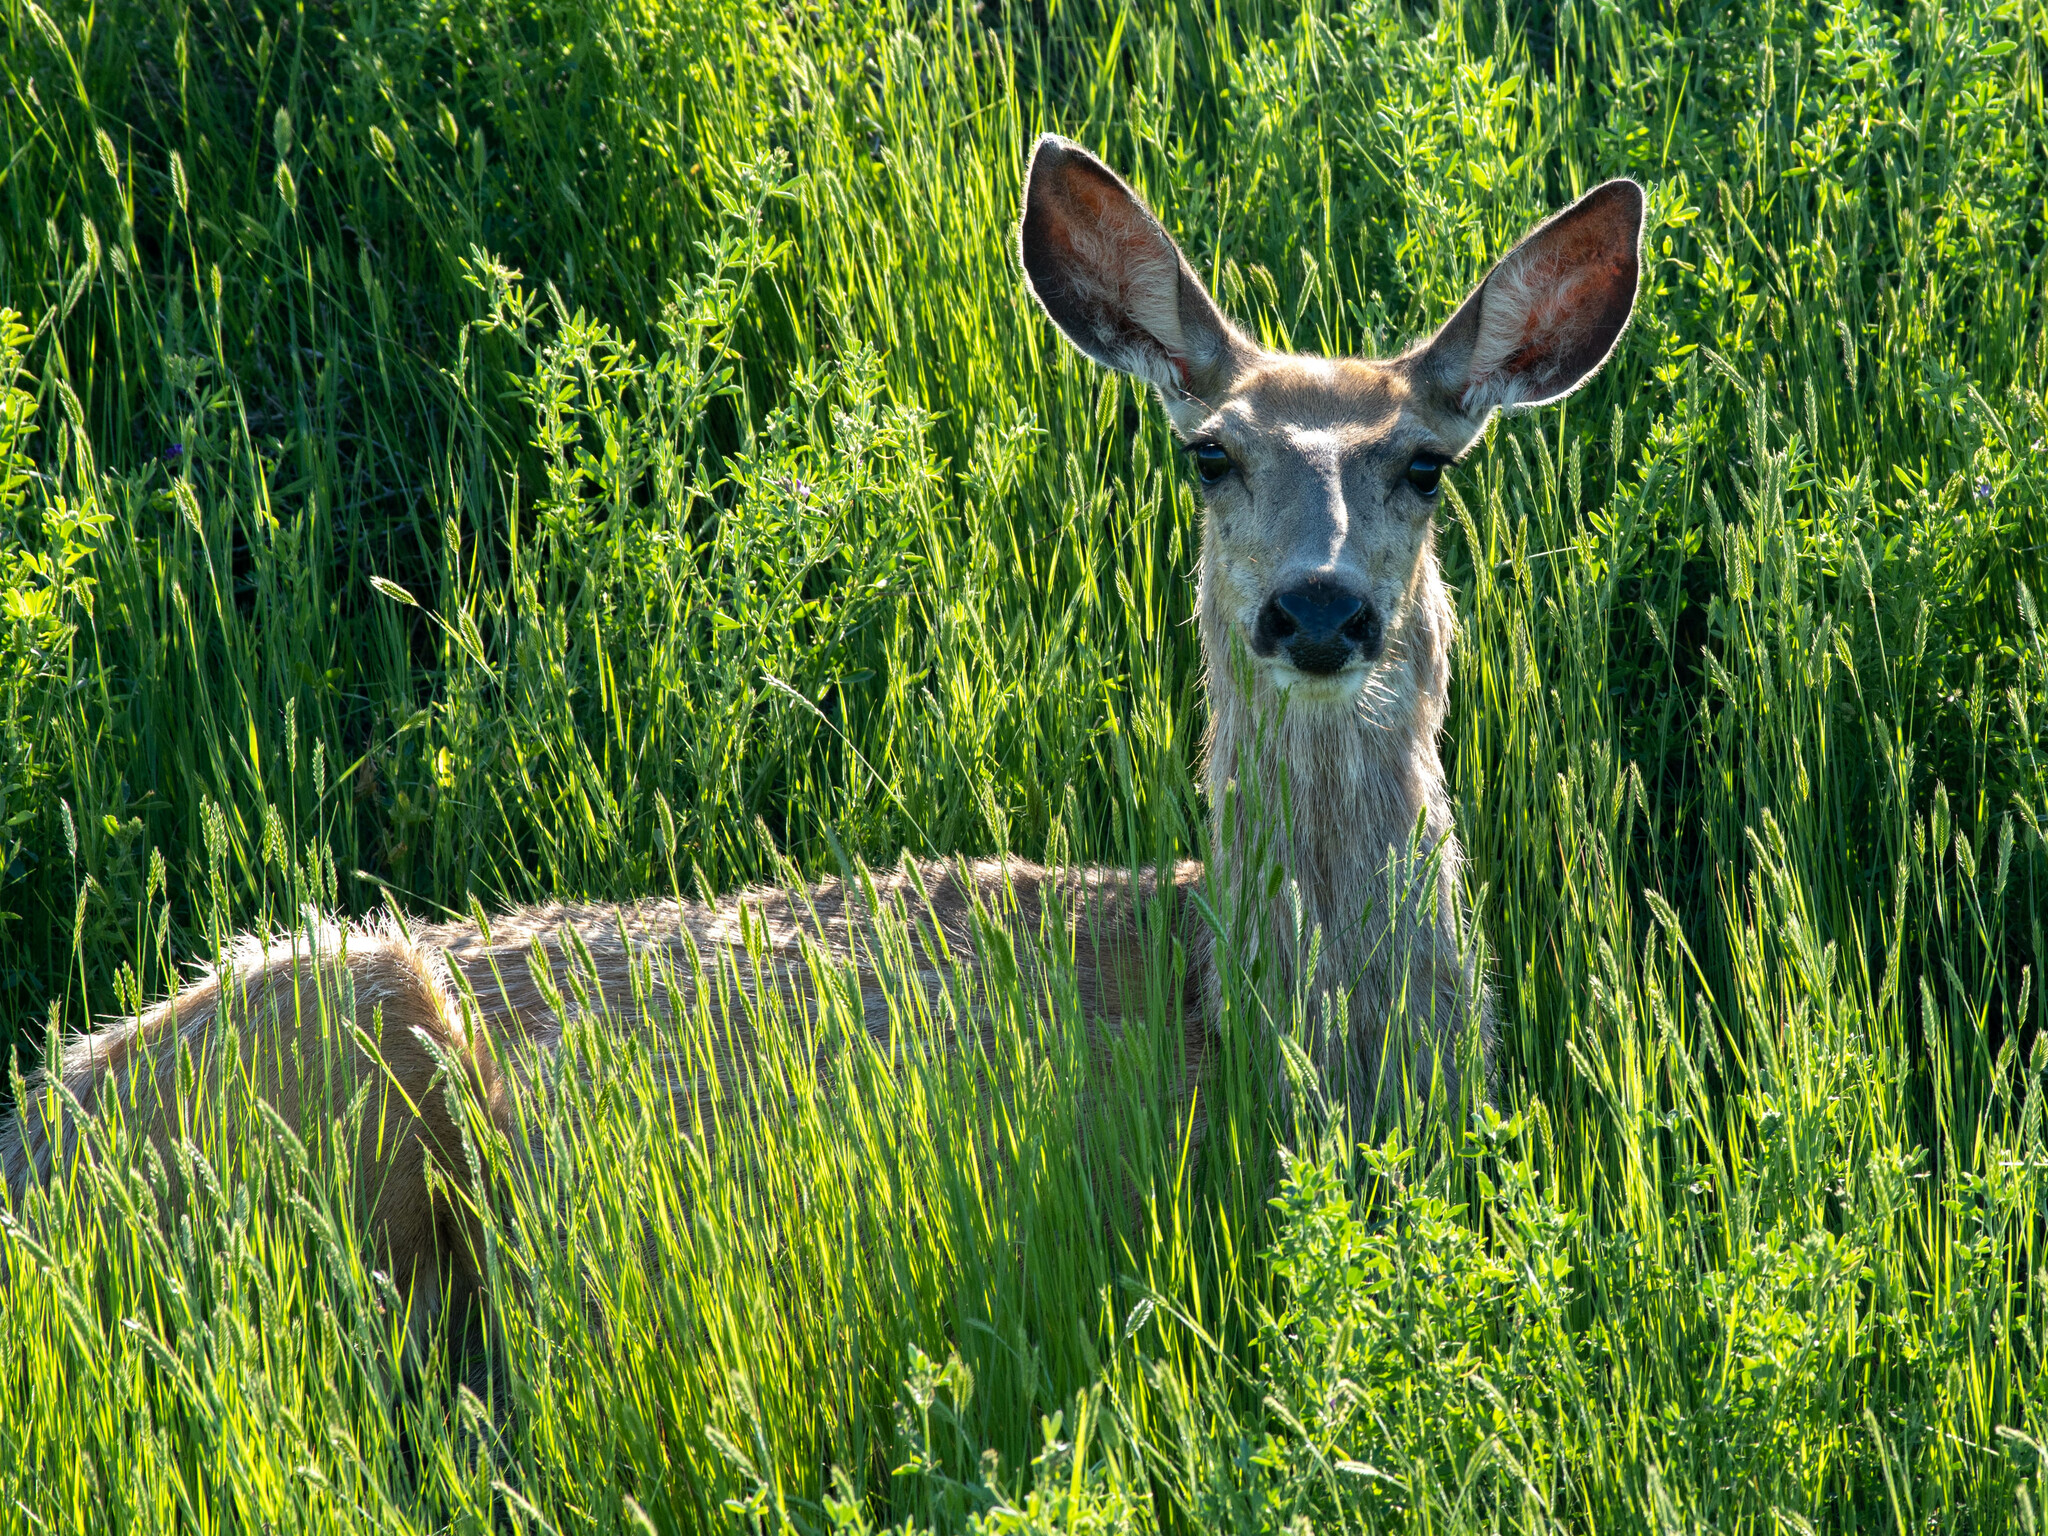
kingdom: Animalia
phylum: Chordata
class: Mammalia
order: Artiodactyla
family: Cervidae
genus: Odocoileus
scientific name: Odocoileus hemionus
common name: Mule deer
